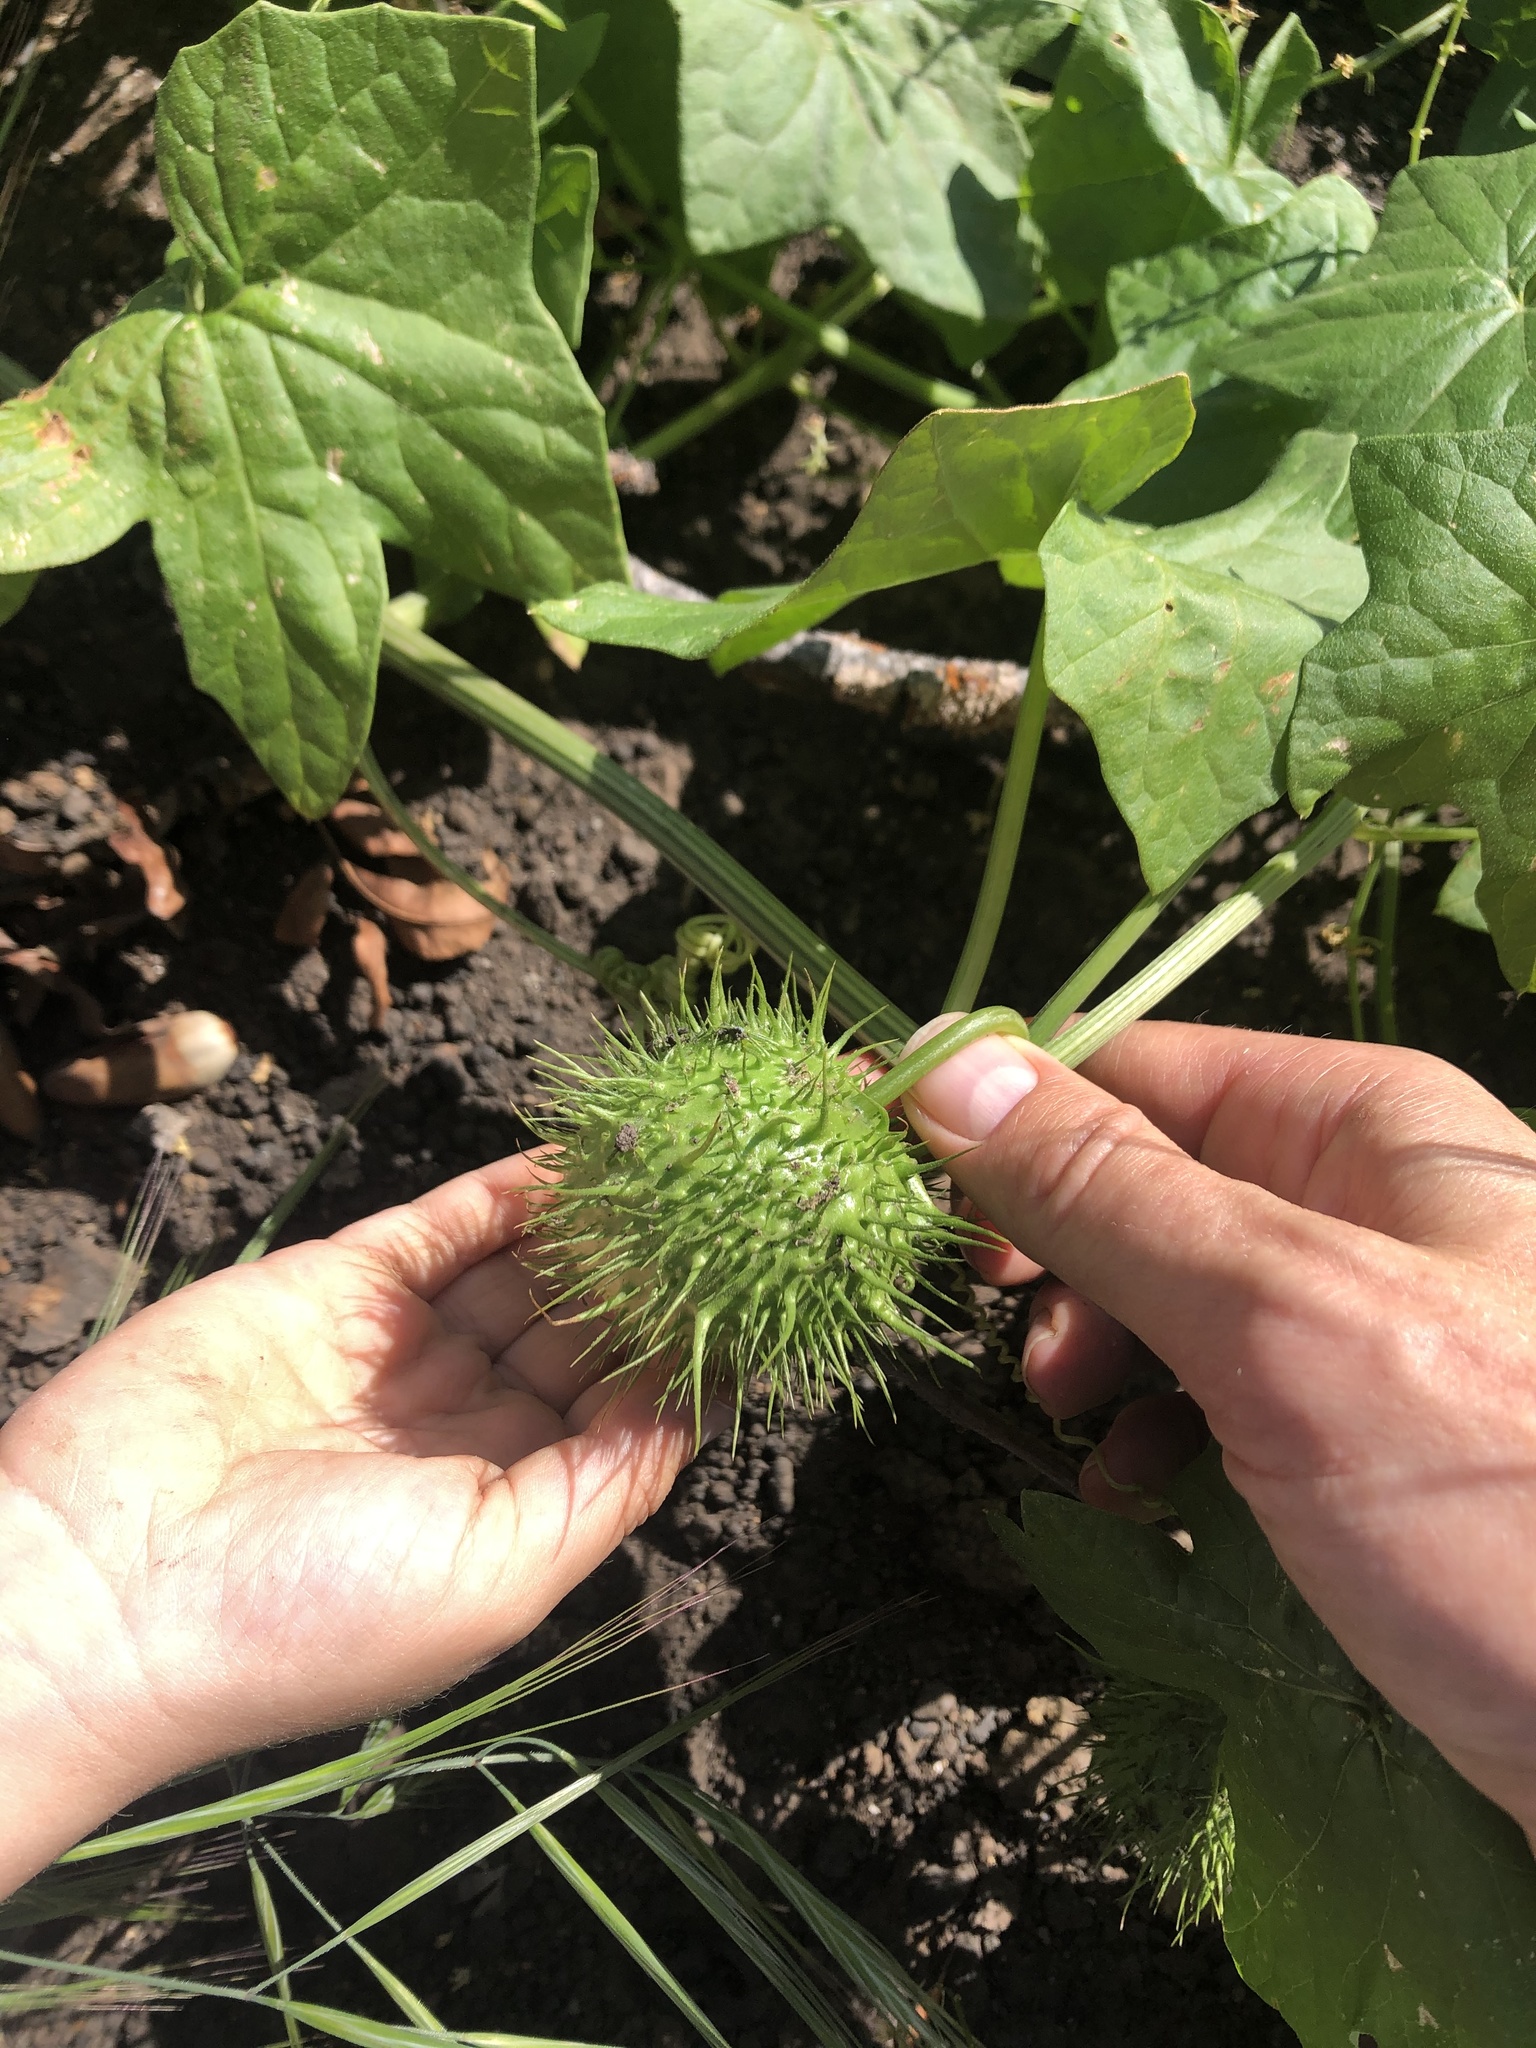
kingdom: Plantae
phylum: Tracheophyta
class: Magnoliopsida
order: Cucurbitales
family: Cucurbitaceae
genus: Marah
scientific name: Marah fabacea
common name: California manroot
